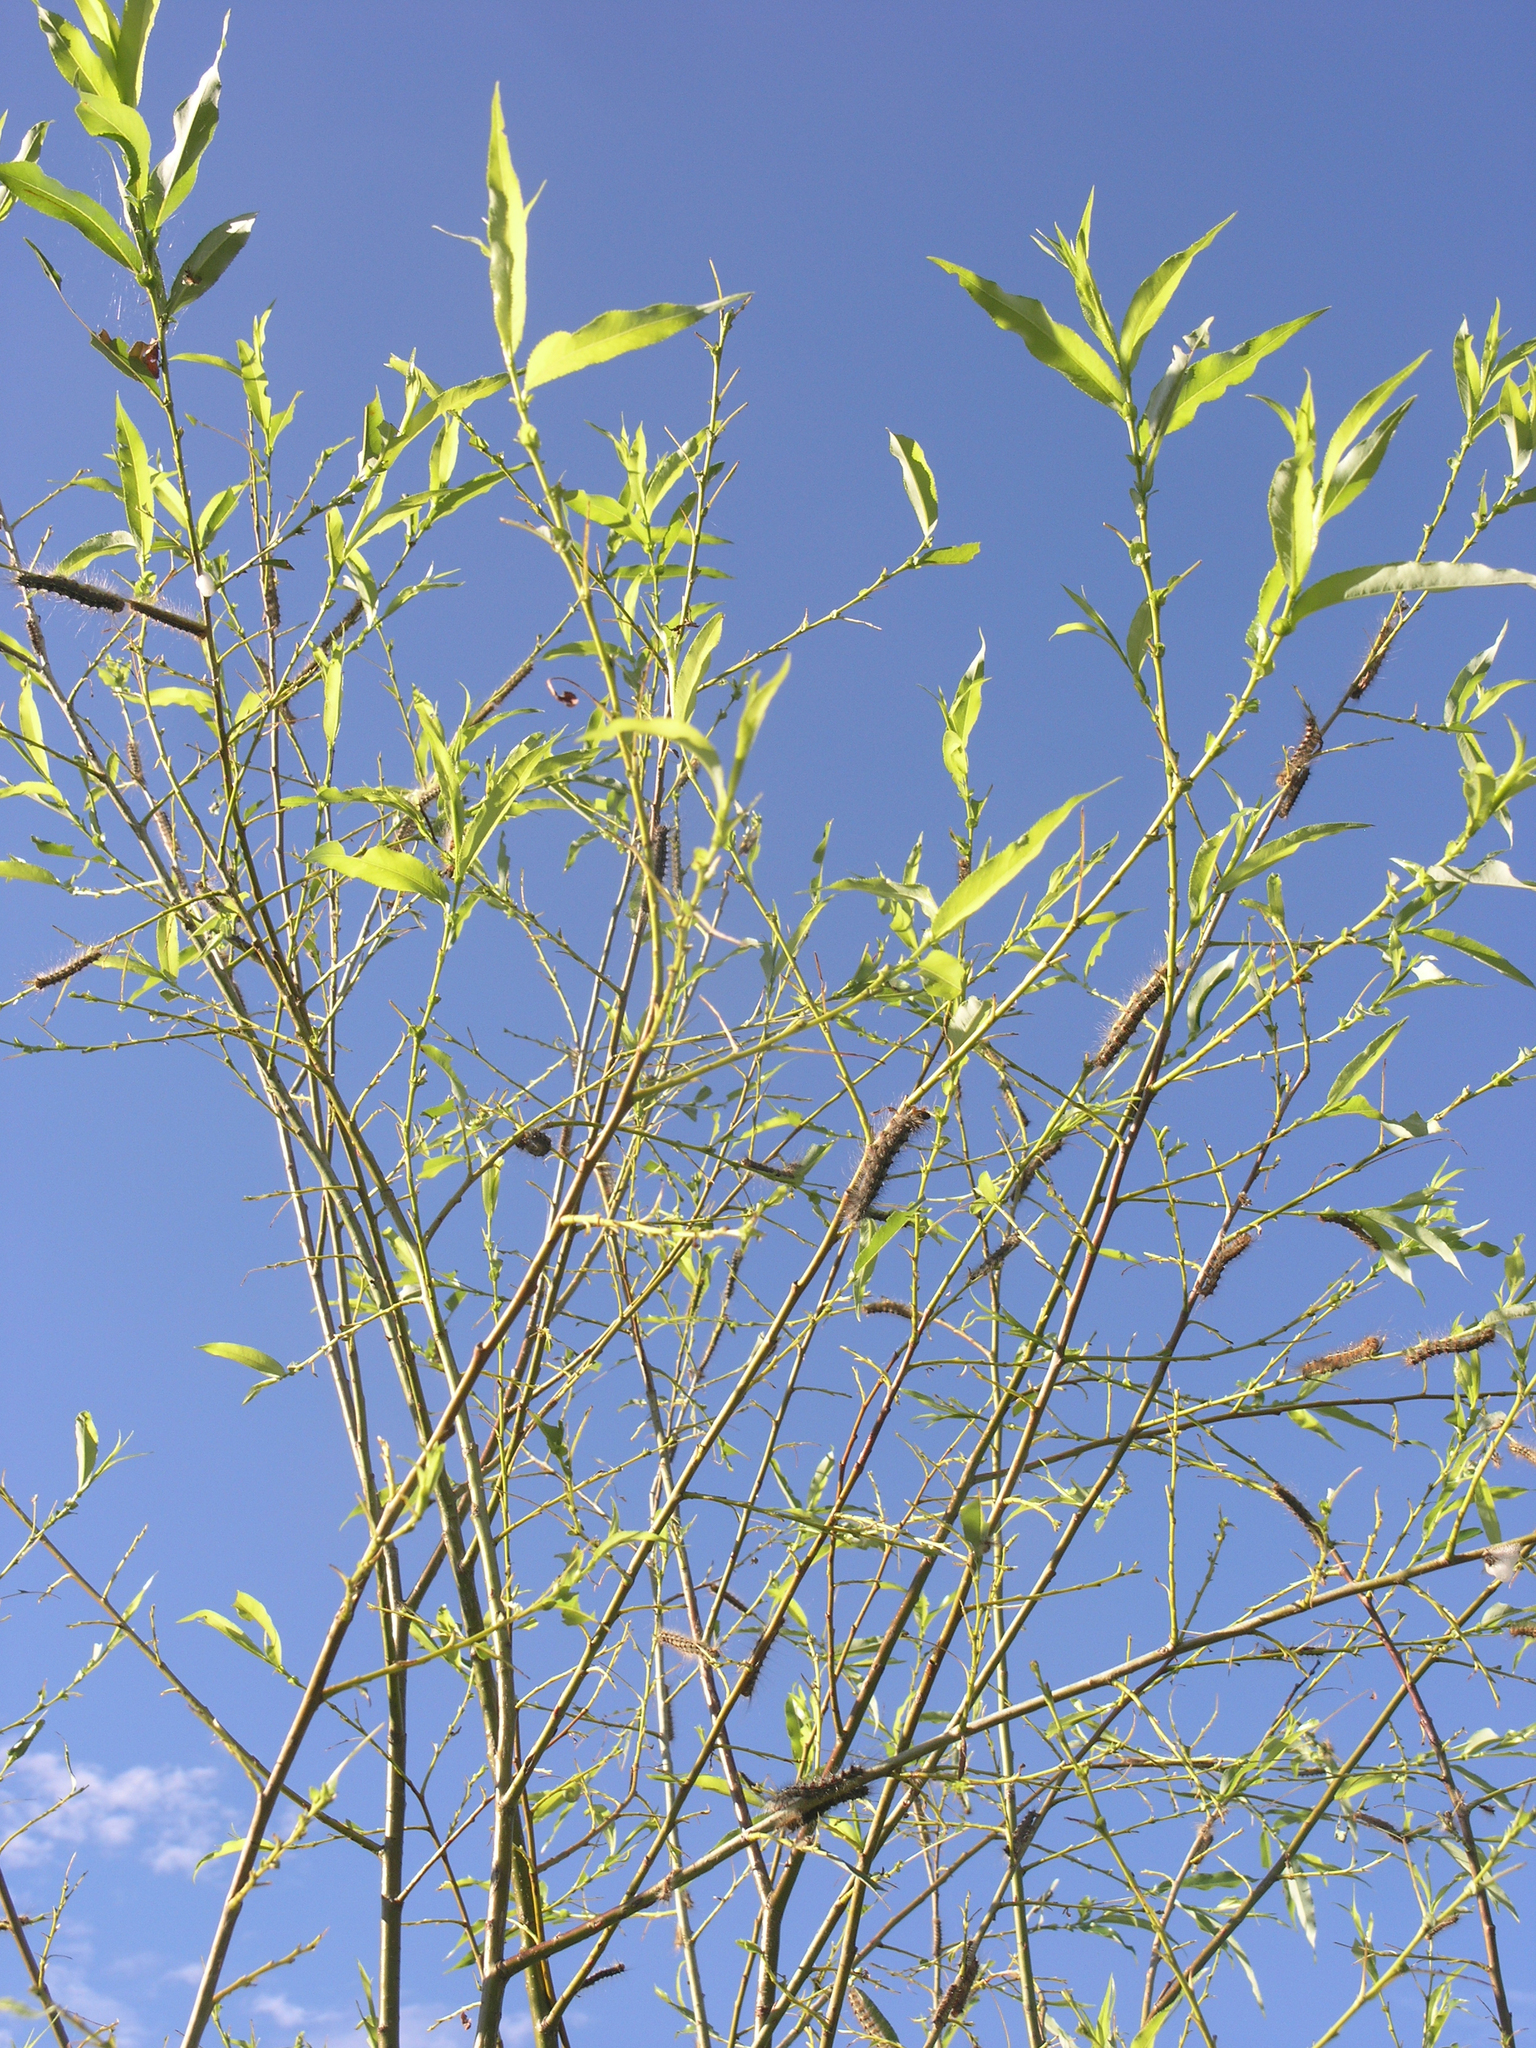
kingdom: Animalia
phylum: Arthropoda
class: Insecta
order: Lepidoptera
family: Erebidae
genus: Lymantria
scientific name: Lymantria dispar
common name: Gypsy moth
